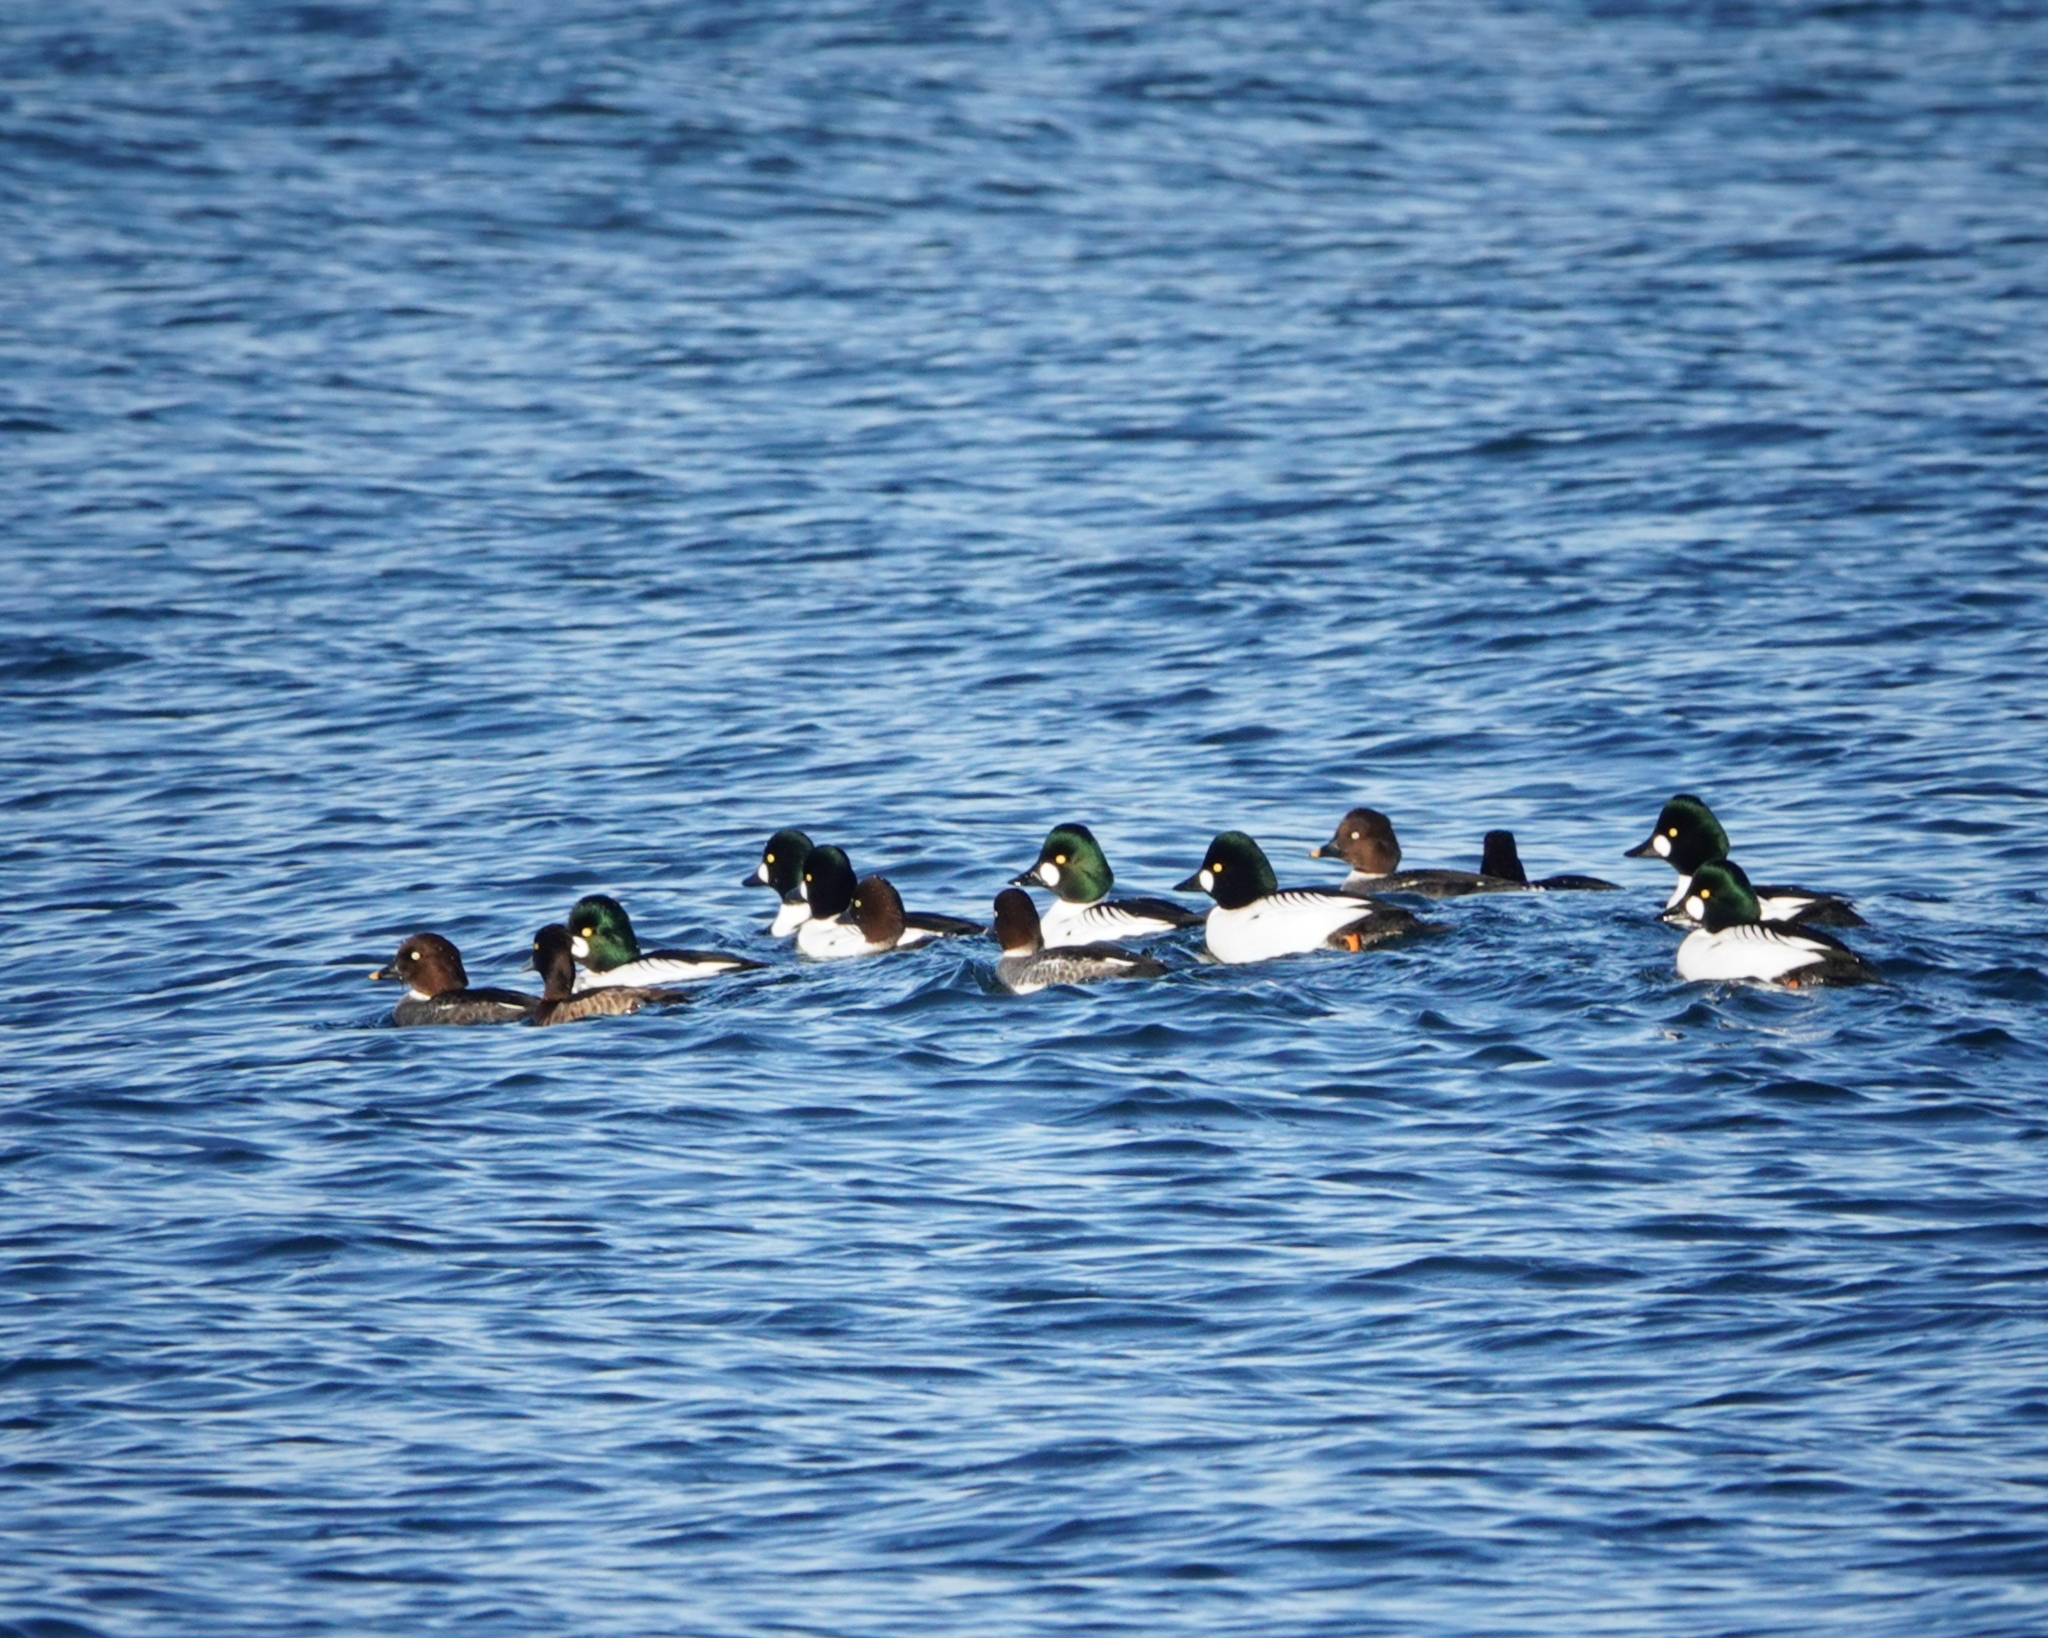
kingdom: Animalia
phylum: Chordata
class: Aves
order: Anseriformes
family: Anatidae
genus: Bucephala
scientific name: Bucephala clangula
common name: Common goldeneye
